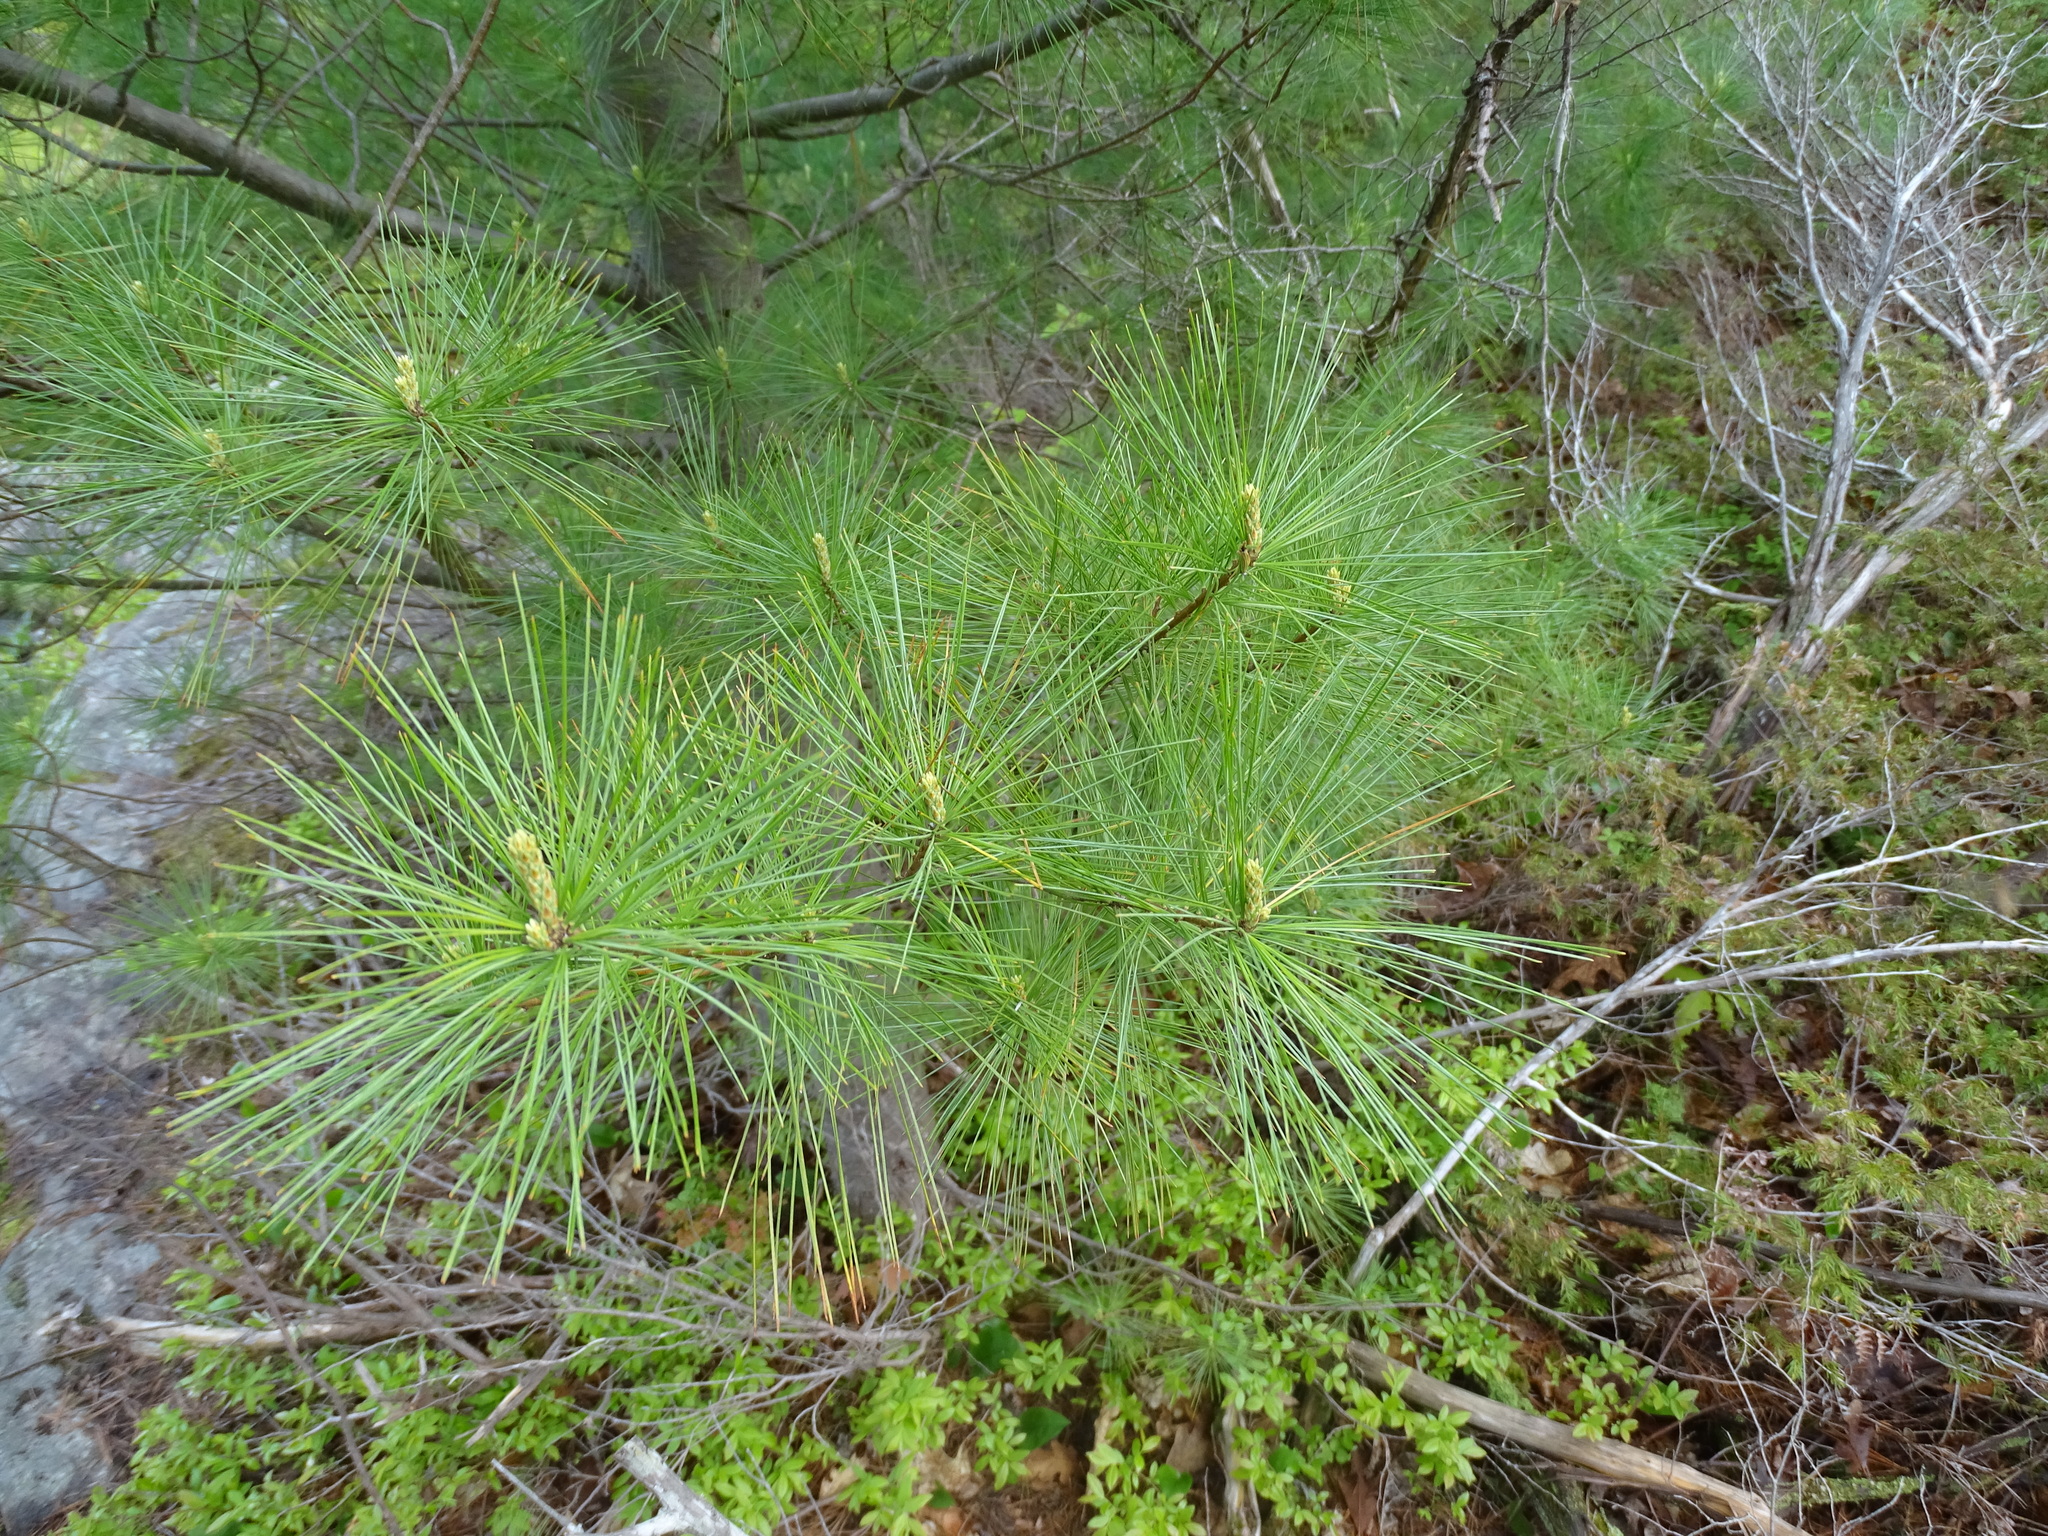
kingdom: Plantae
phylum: Tracheophyta
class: Pinopsida
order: Pinales
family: Pinaceae
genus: Pinus
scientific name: Pinus strobus
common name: Weymouth pine
